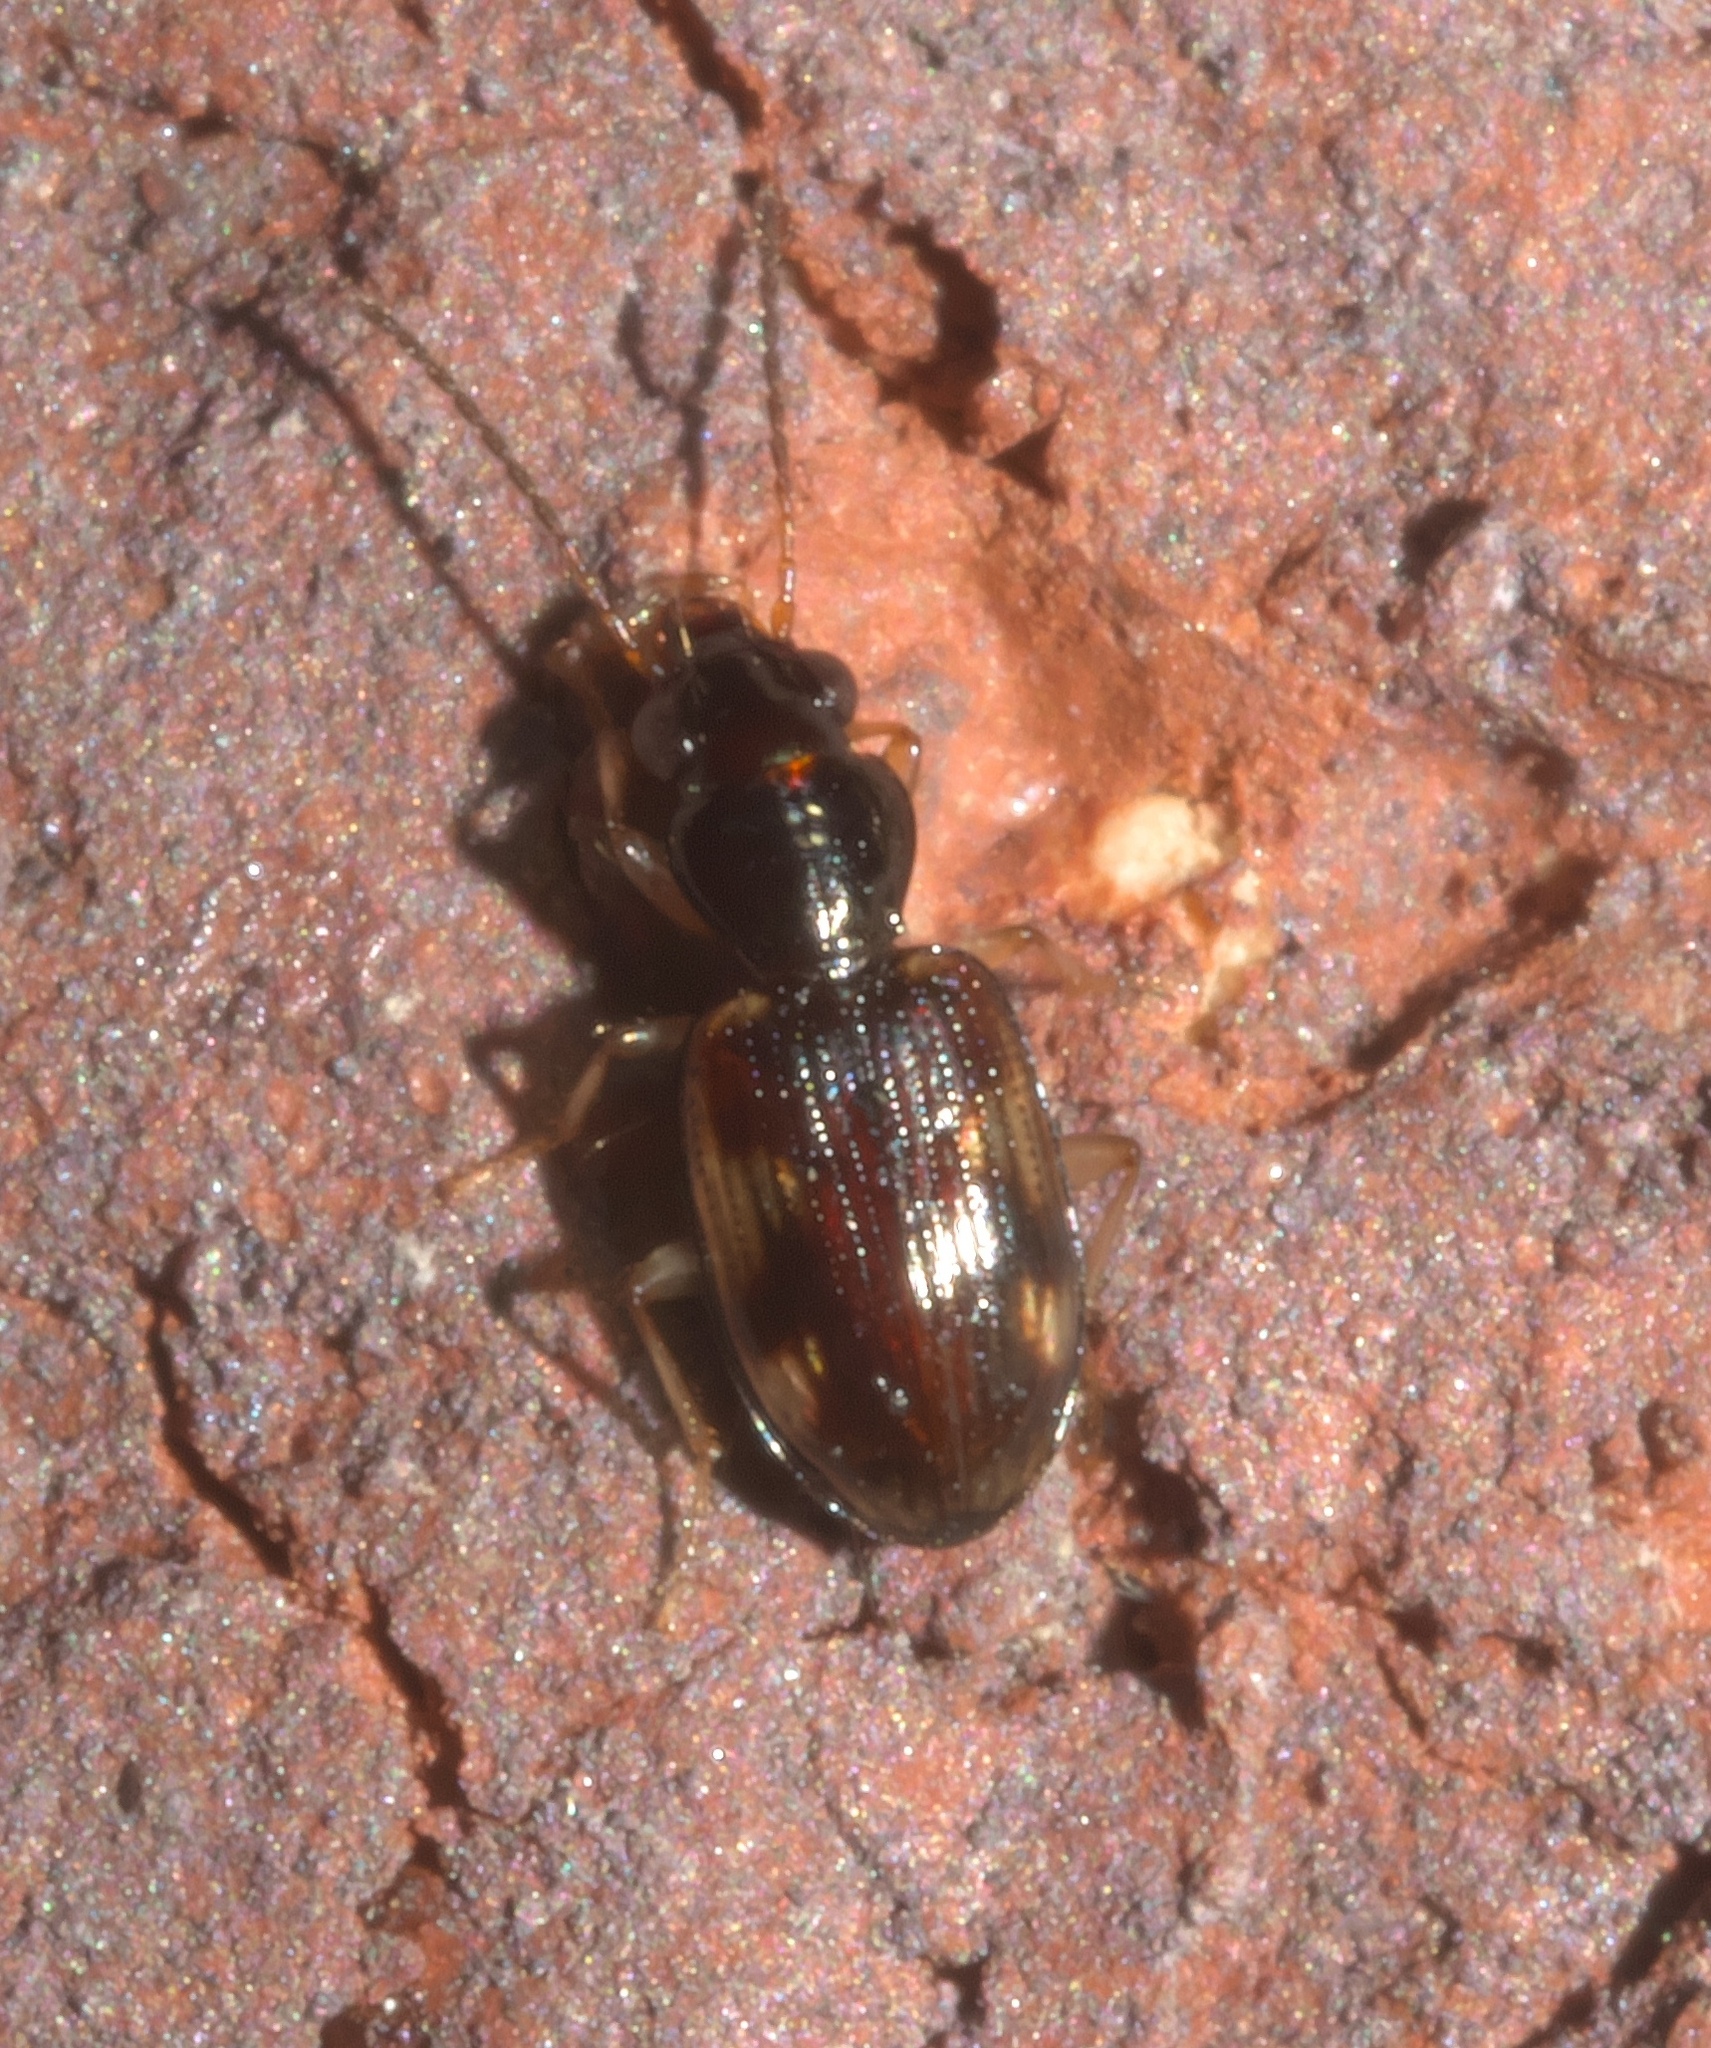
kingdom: Animalia
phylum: Arthropoda
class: Insecta
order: Coleoptera
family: Carabidae
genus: Bembidion
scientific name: Bembidion affine
